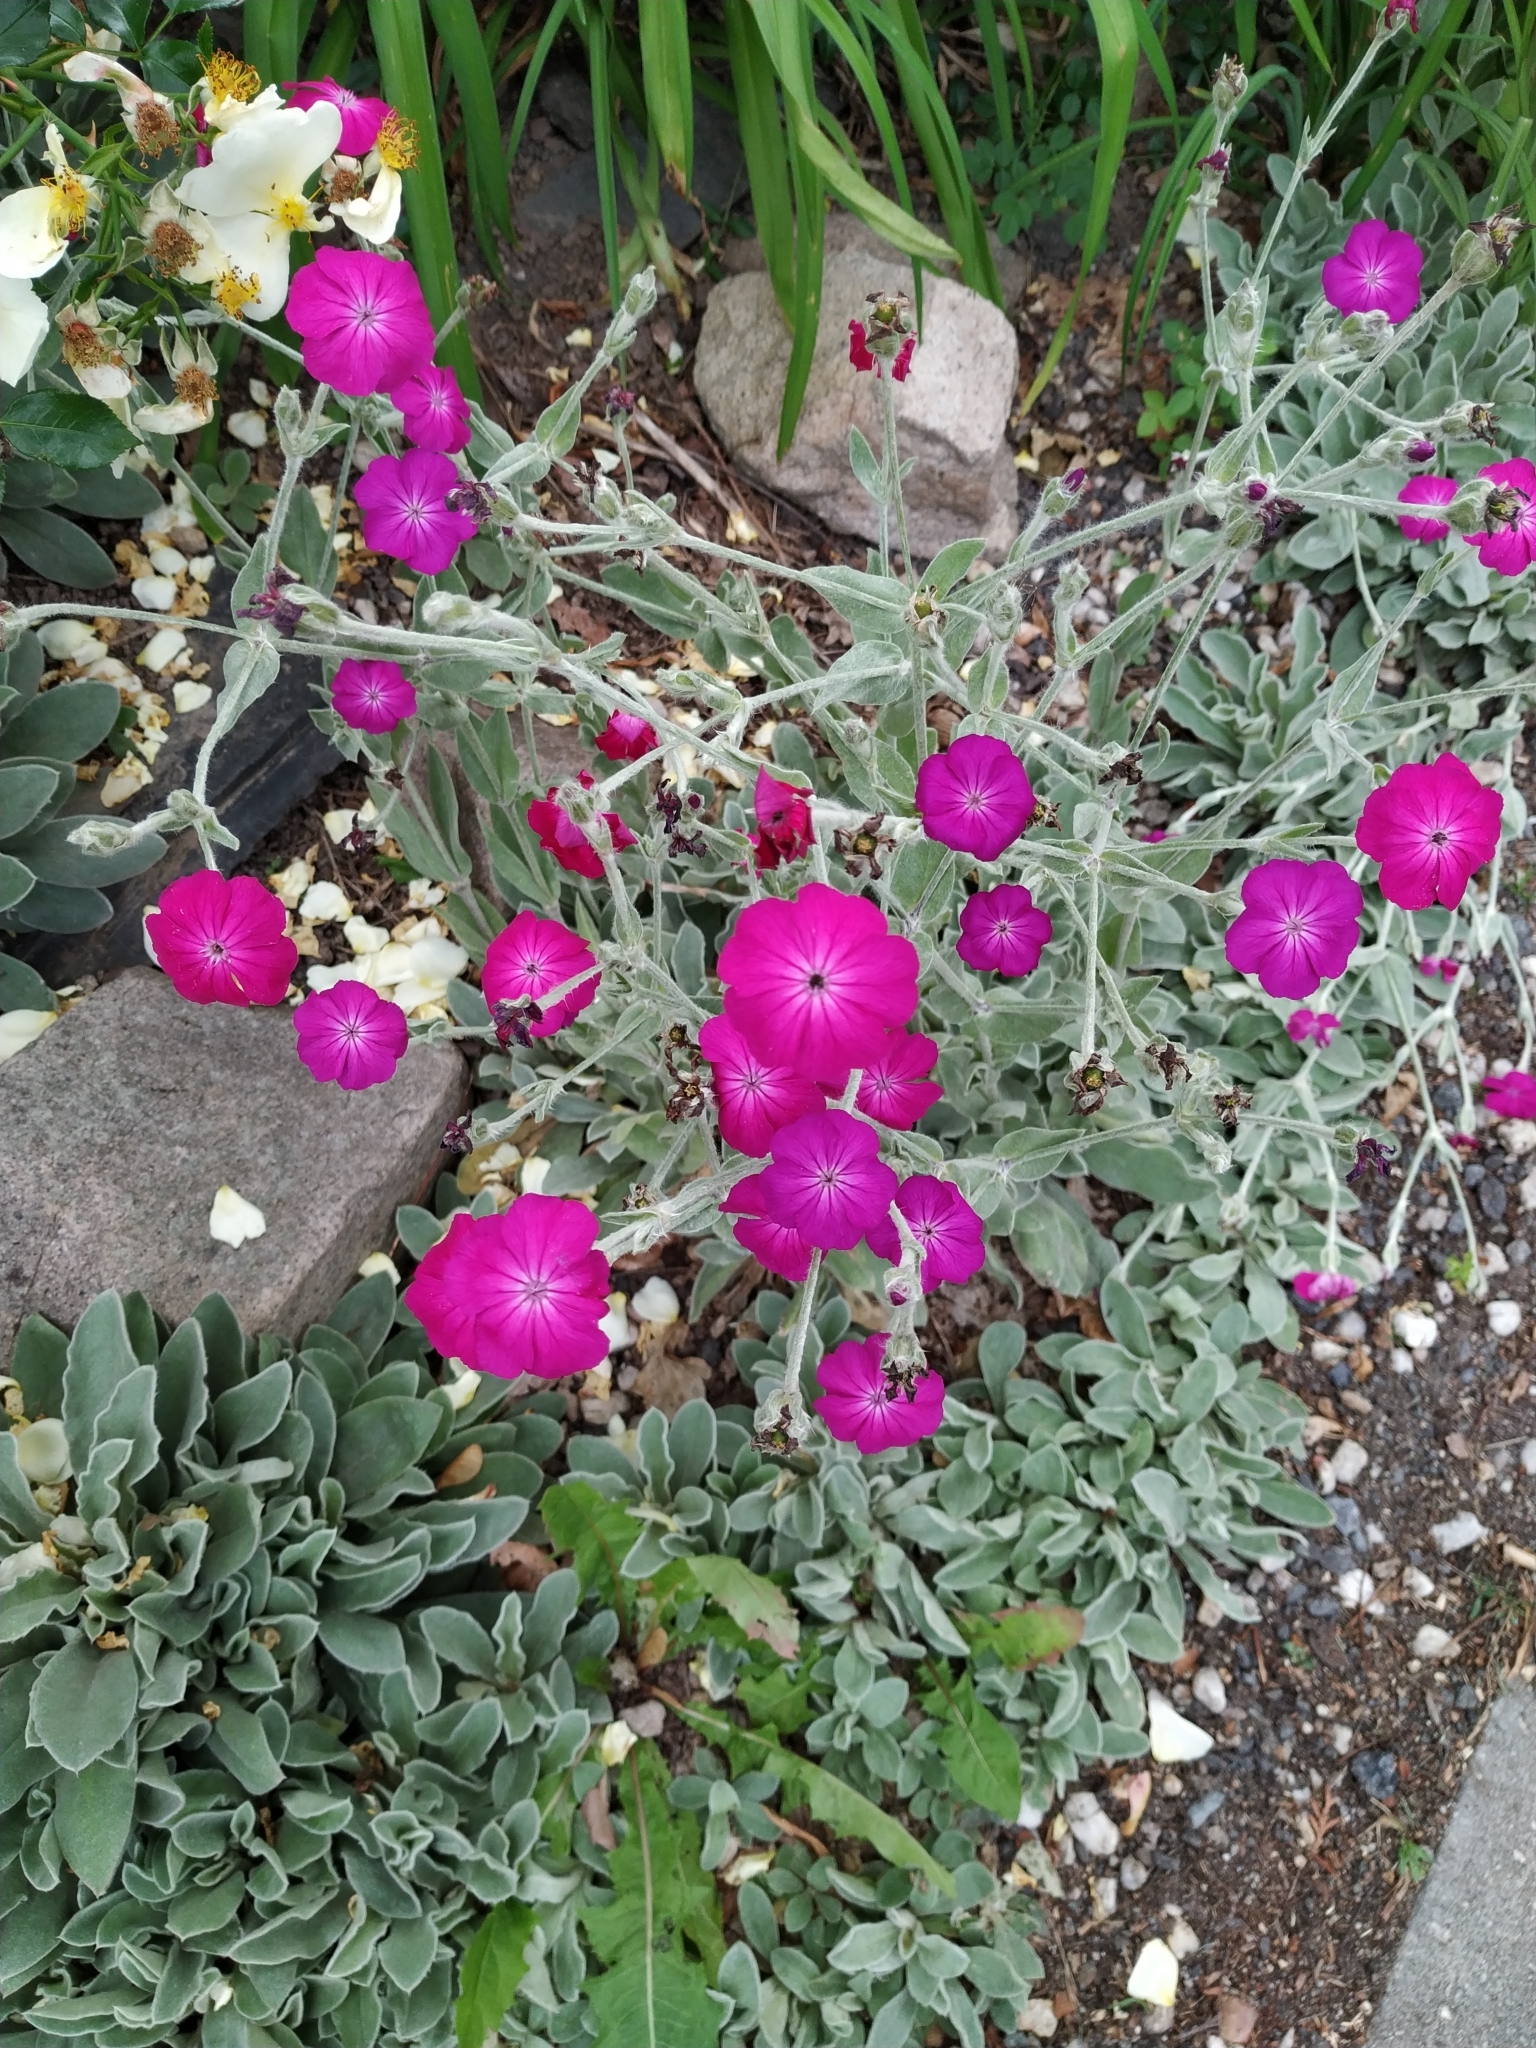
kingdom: Plantae
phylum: Tracheophyta
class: Magnoliopsida
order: Caryophyllales
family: Caryophyllaceae
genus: Silene
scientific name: Silene coronaria
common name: Rose campion
